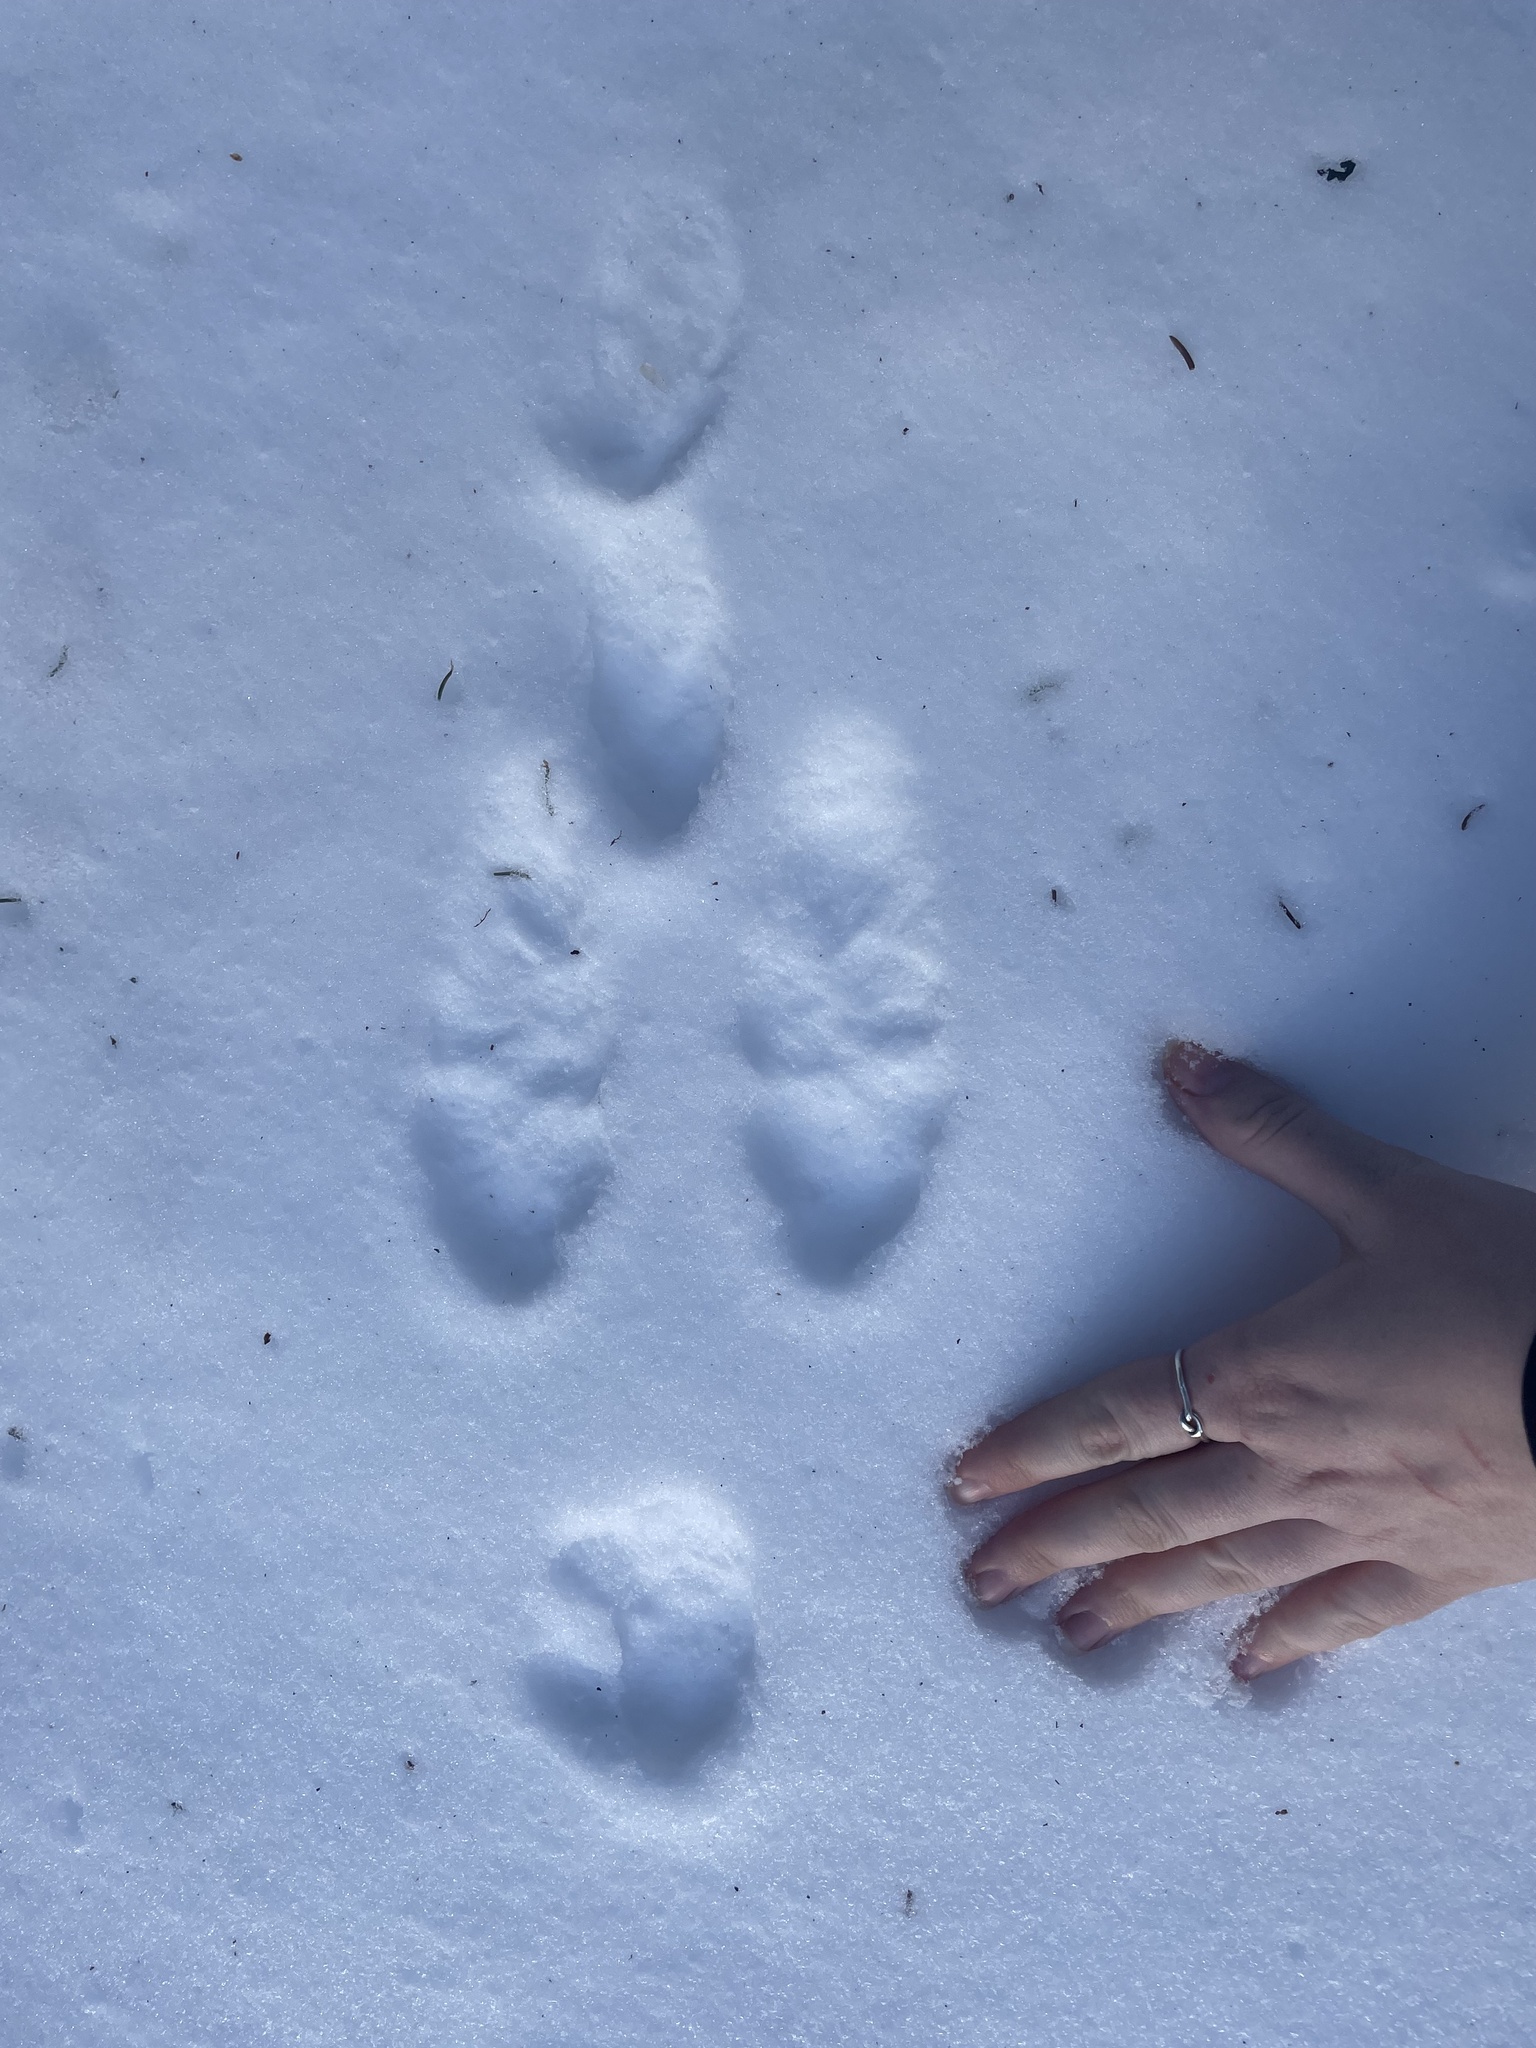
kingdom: Animalia
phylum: Chordata
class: Mammalia
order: Lagomorpha
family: Leporidae
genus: Lepus
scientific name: Lepus americanus
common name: Snowshoe hare
